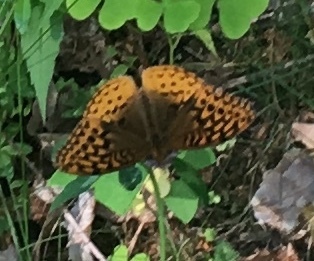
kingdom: Animalia
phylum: Arthropoda
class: Insecta
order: Lepidoptera
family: Nymphalidae
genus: Speyeria
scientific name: Speyeria cybele
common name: Great spangled fritillary
